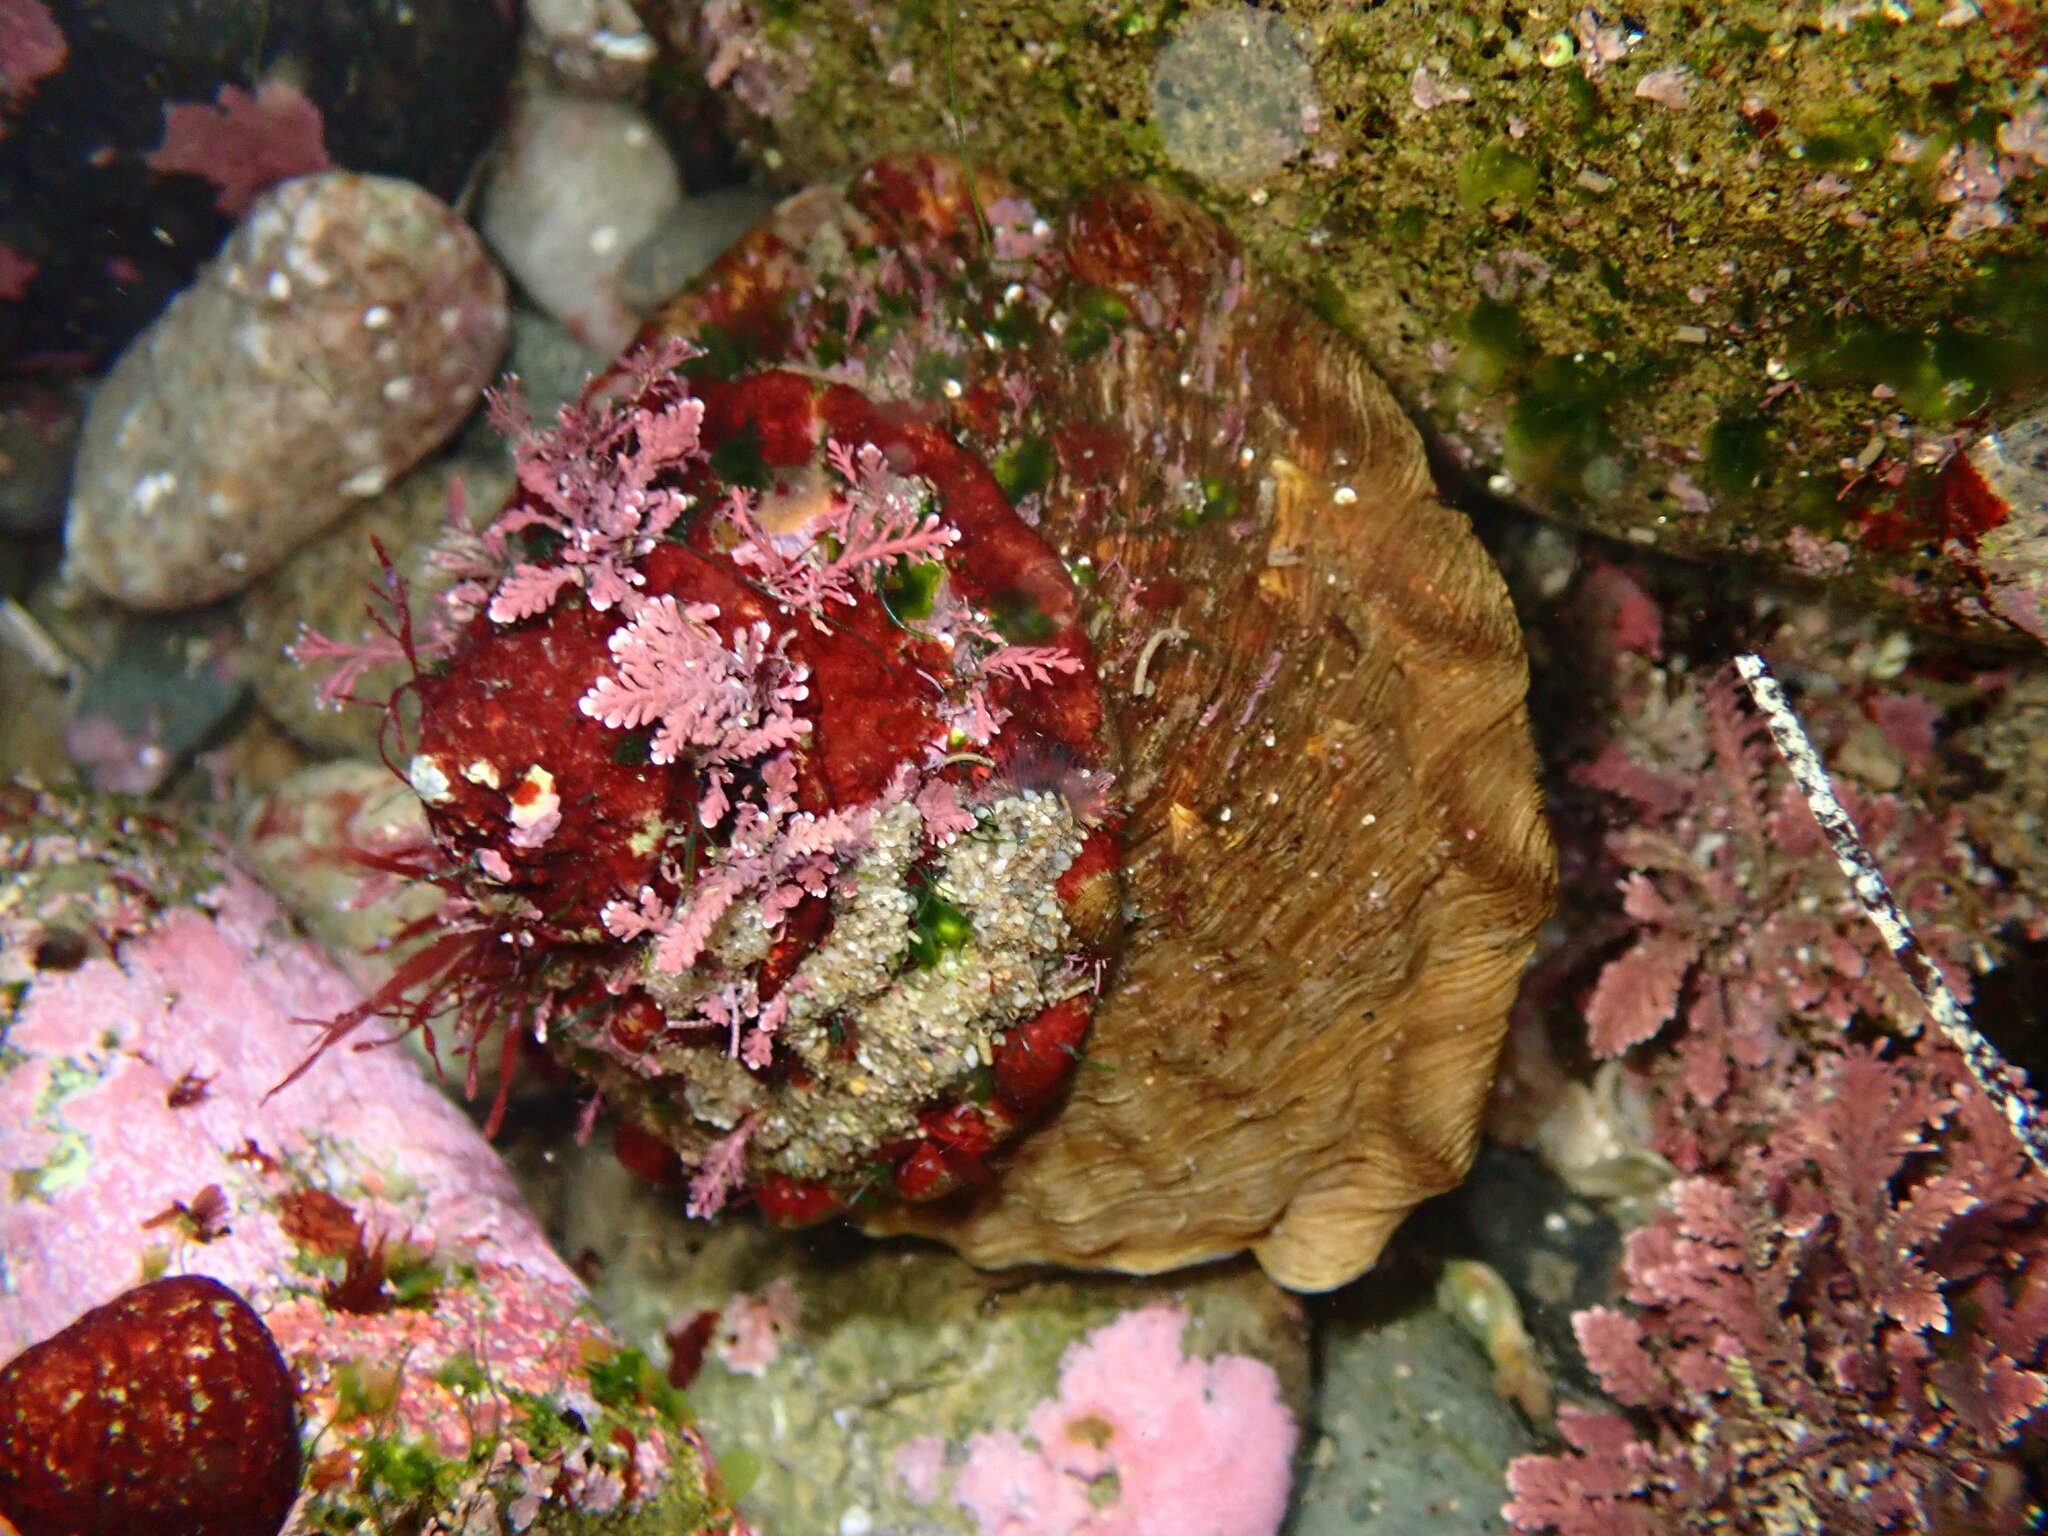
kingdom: Animalia
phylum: Mollusca
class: Gastropoda
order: Trochida
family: Turbinidae
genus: Megastraea
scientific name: Megastraea undosa
